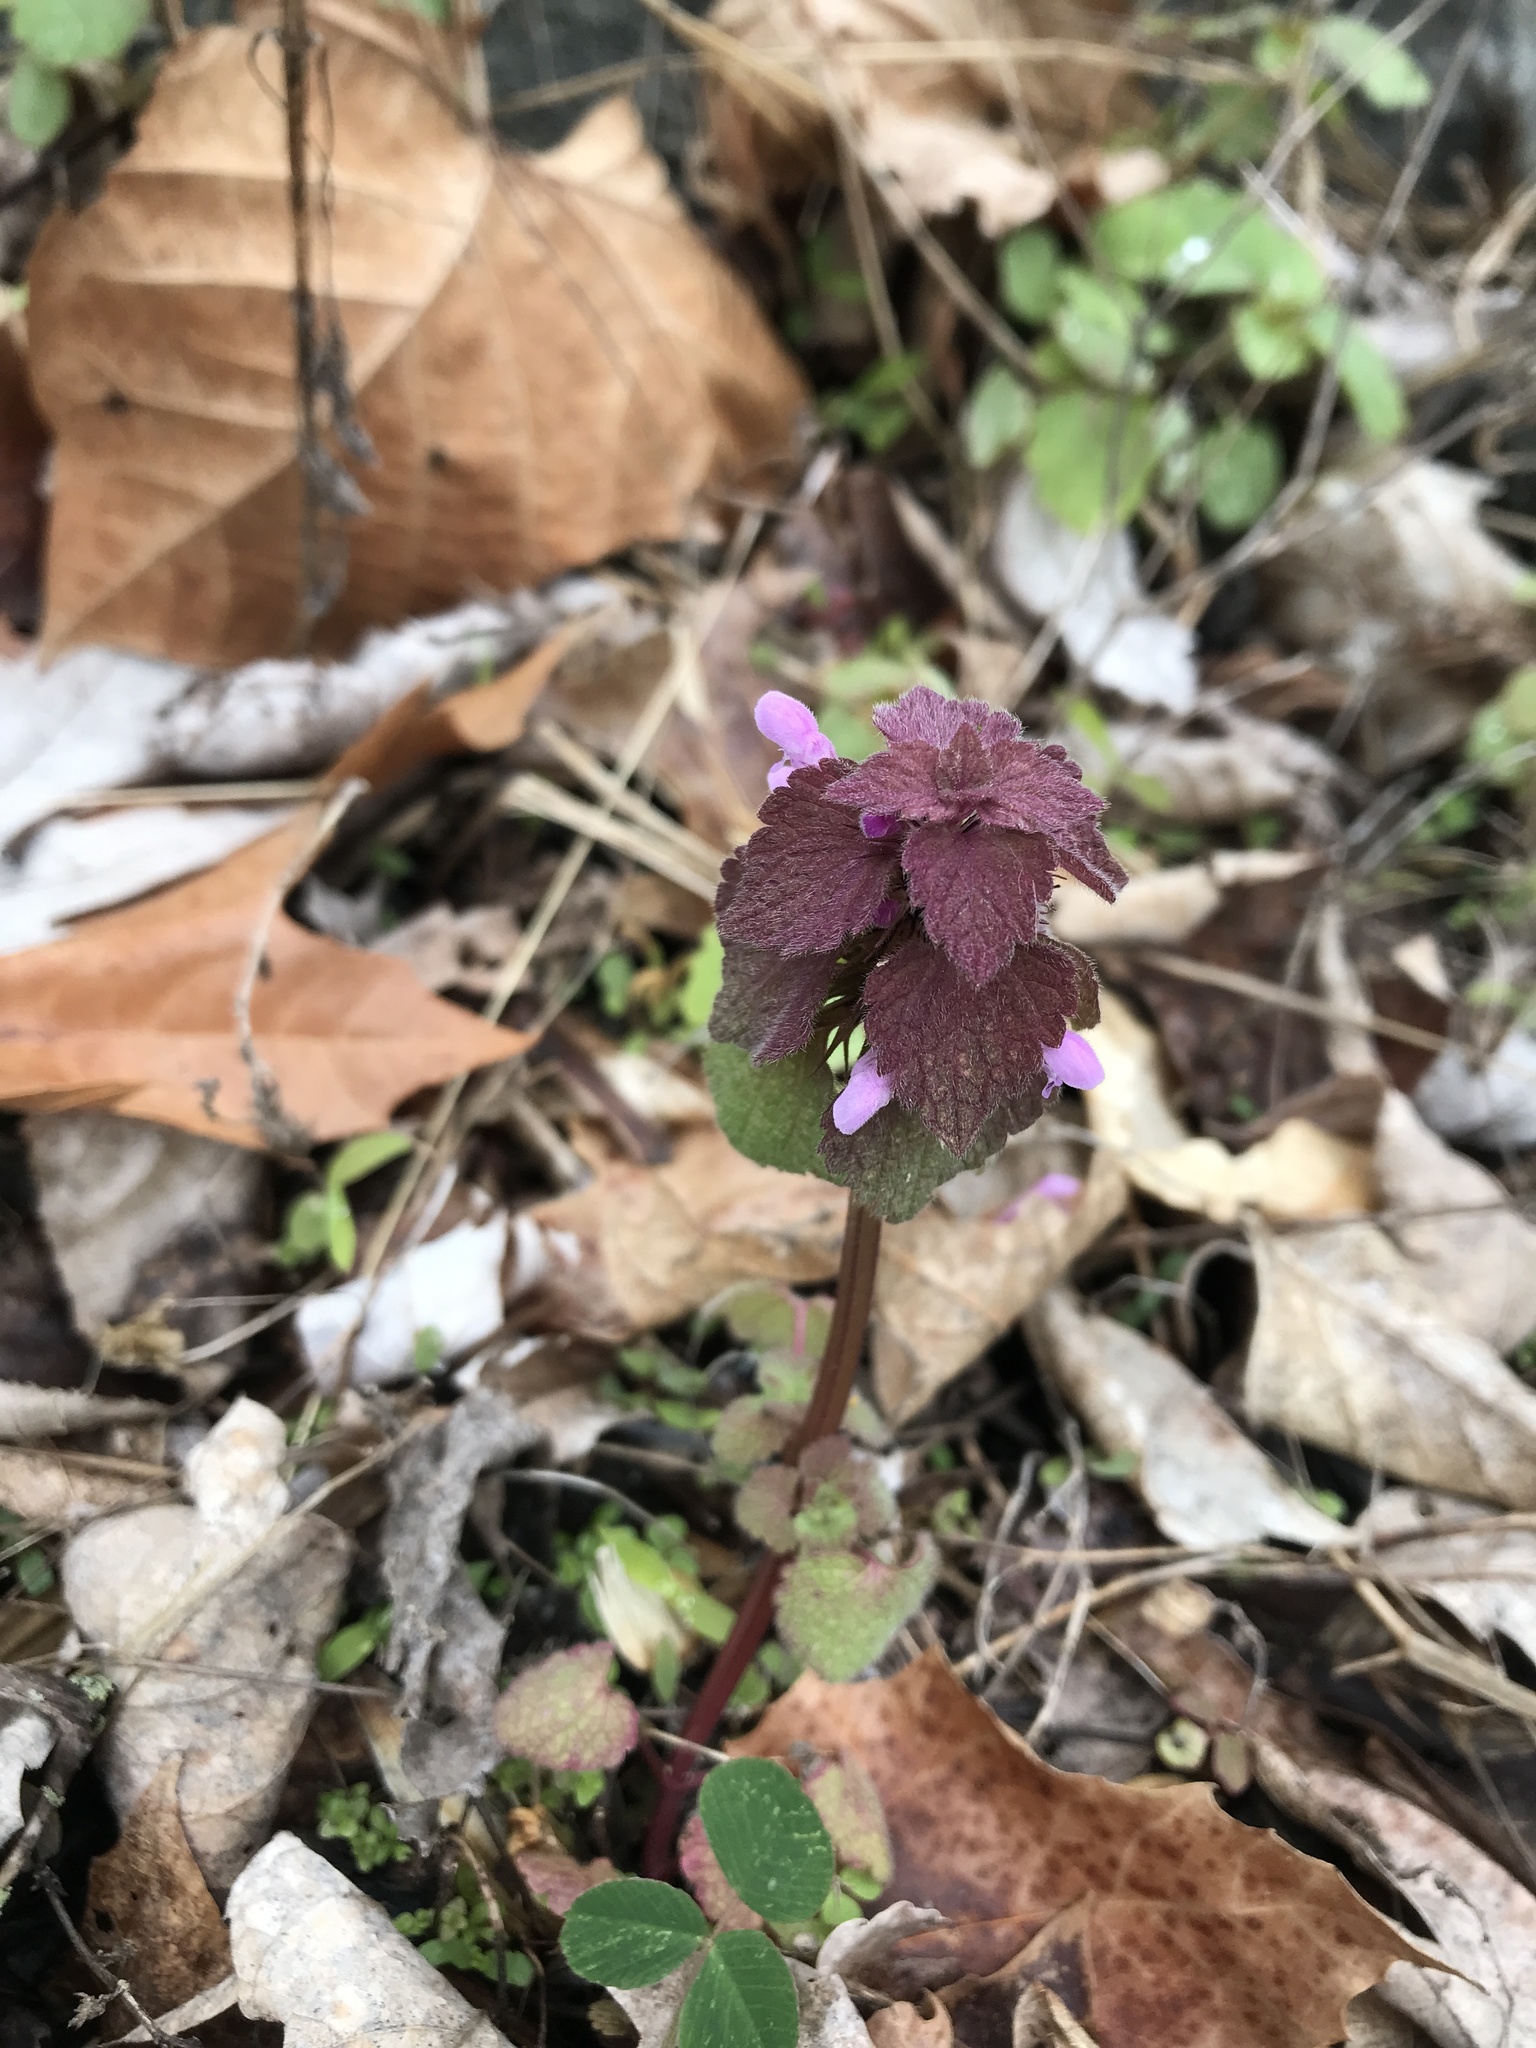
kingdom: Plantae
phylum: Tracheophyta
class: Magnoliopsida
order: Lamiales
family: Lamiaceae
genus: Lamium
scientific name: Lamium purpureum
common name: Red dead-nettle
